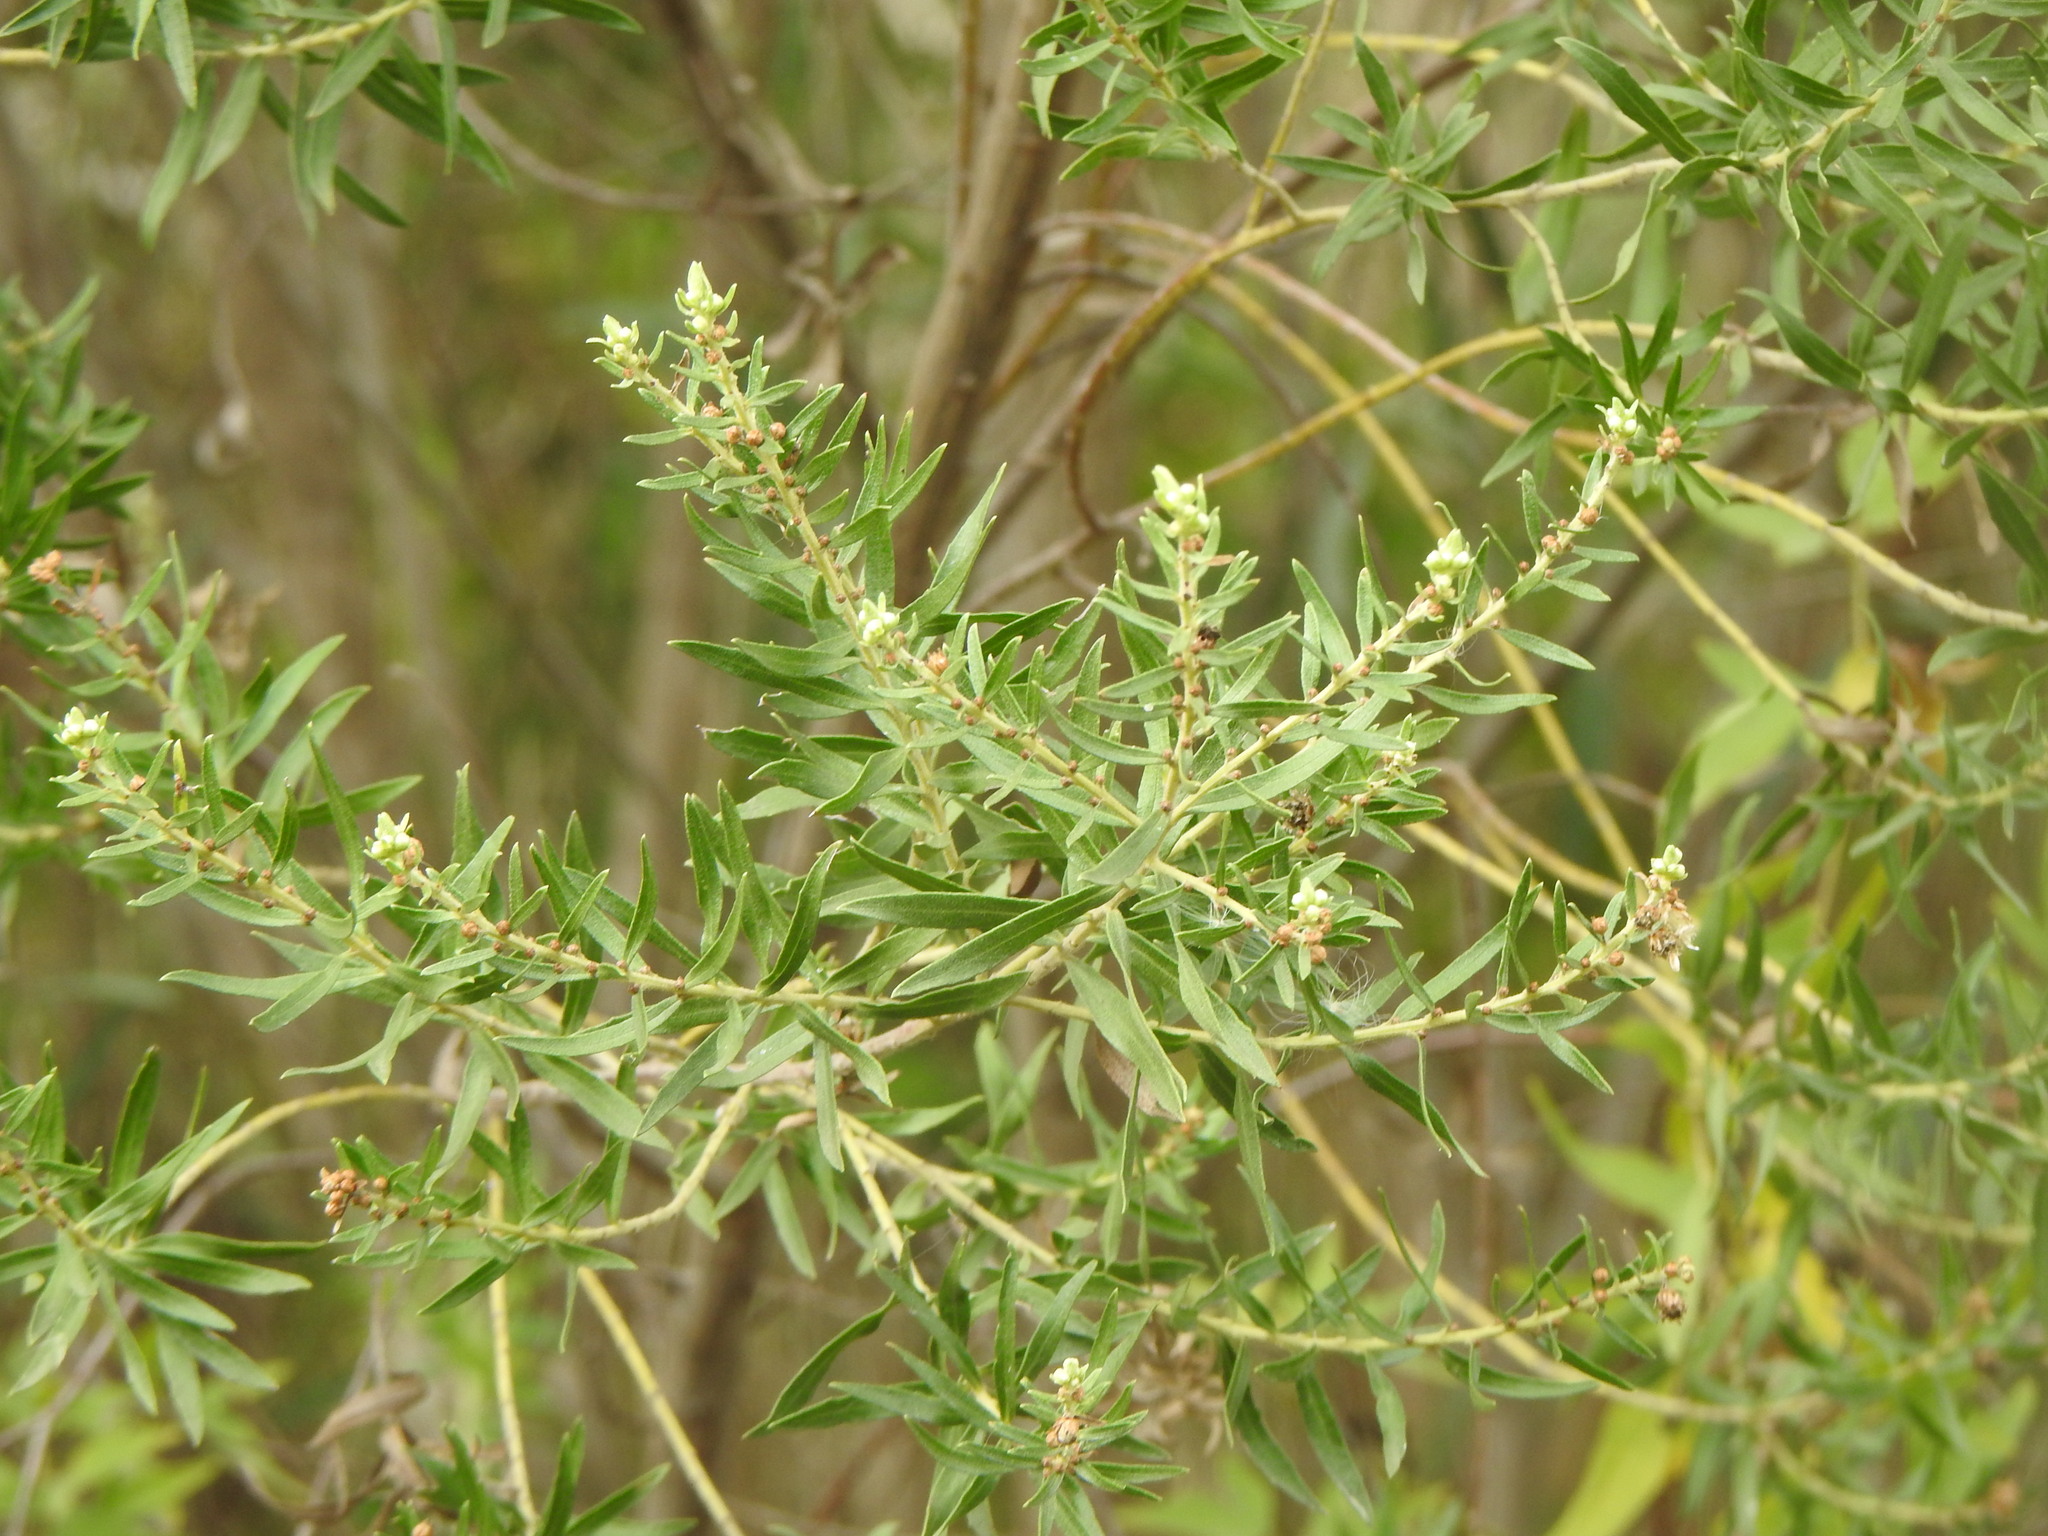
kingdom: Plantae
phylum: Tracheophyta
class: Magnoliopsida
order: Asterales
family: Asteraceae
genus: Baccharis
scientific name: Baccharis dracunculifolia
